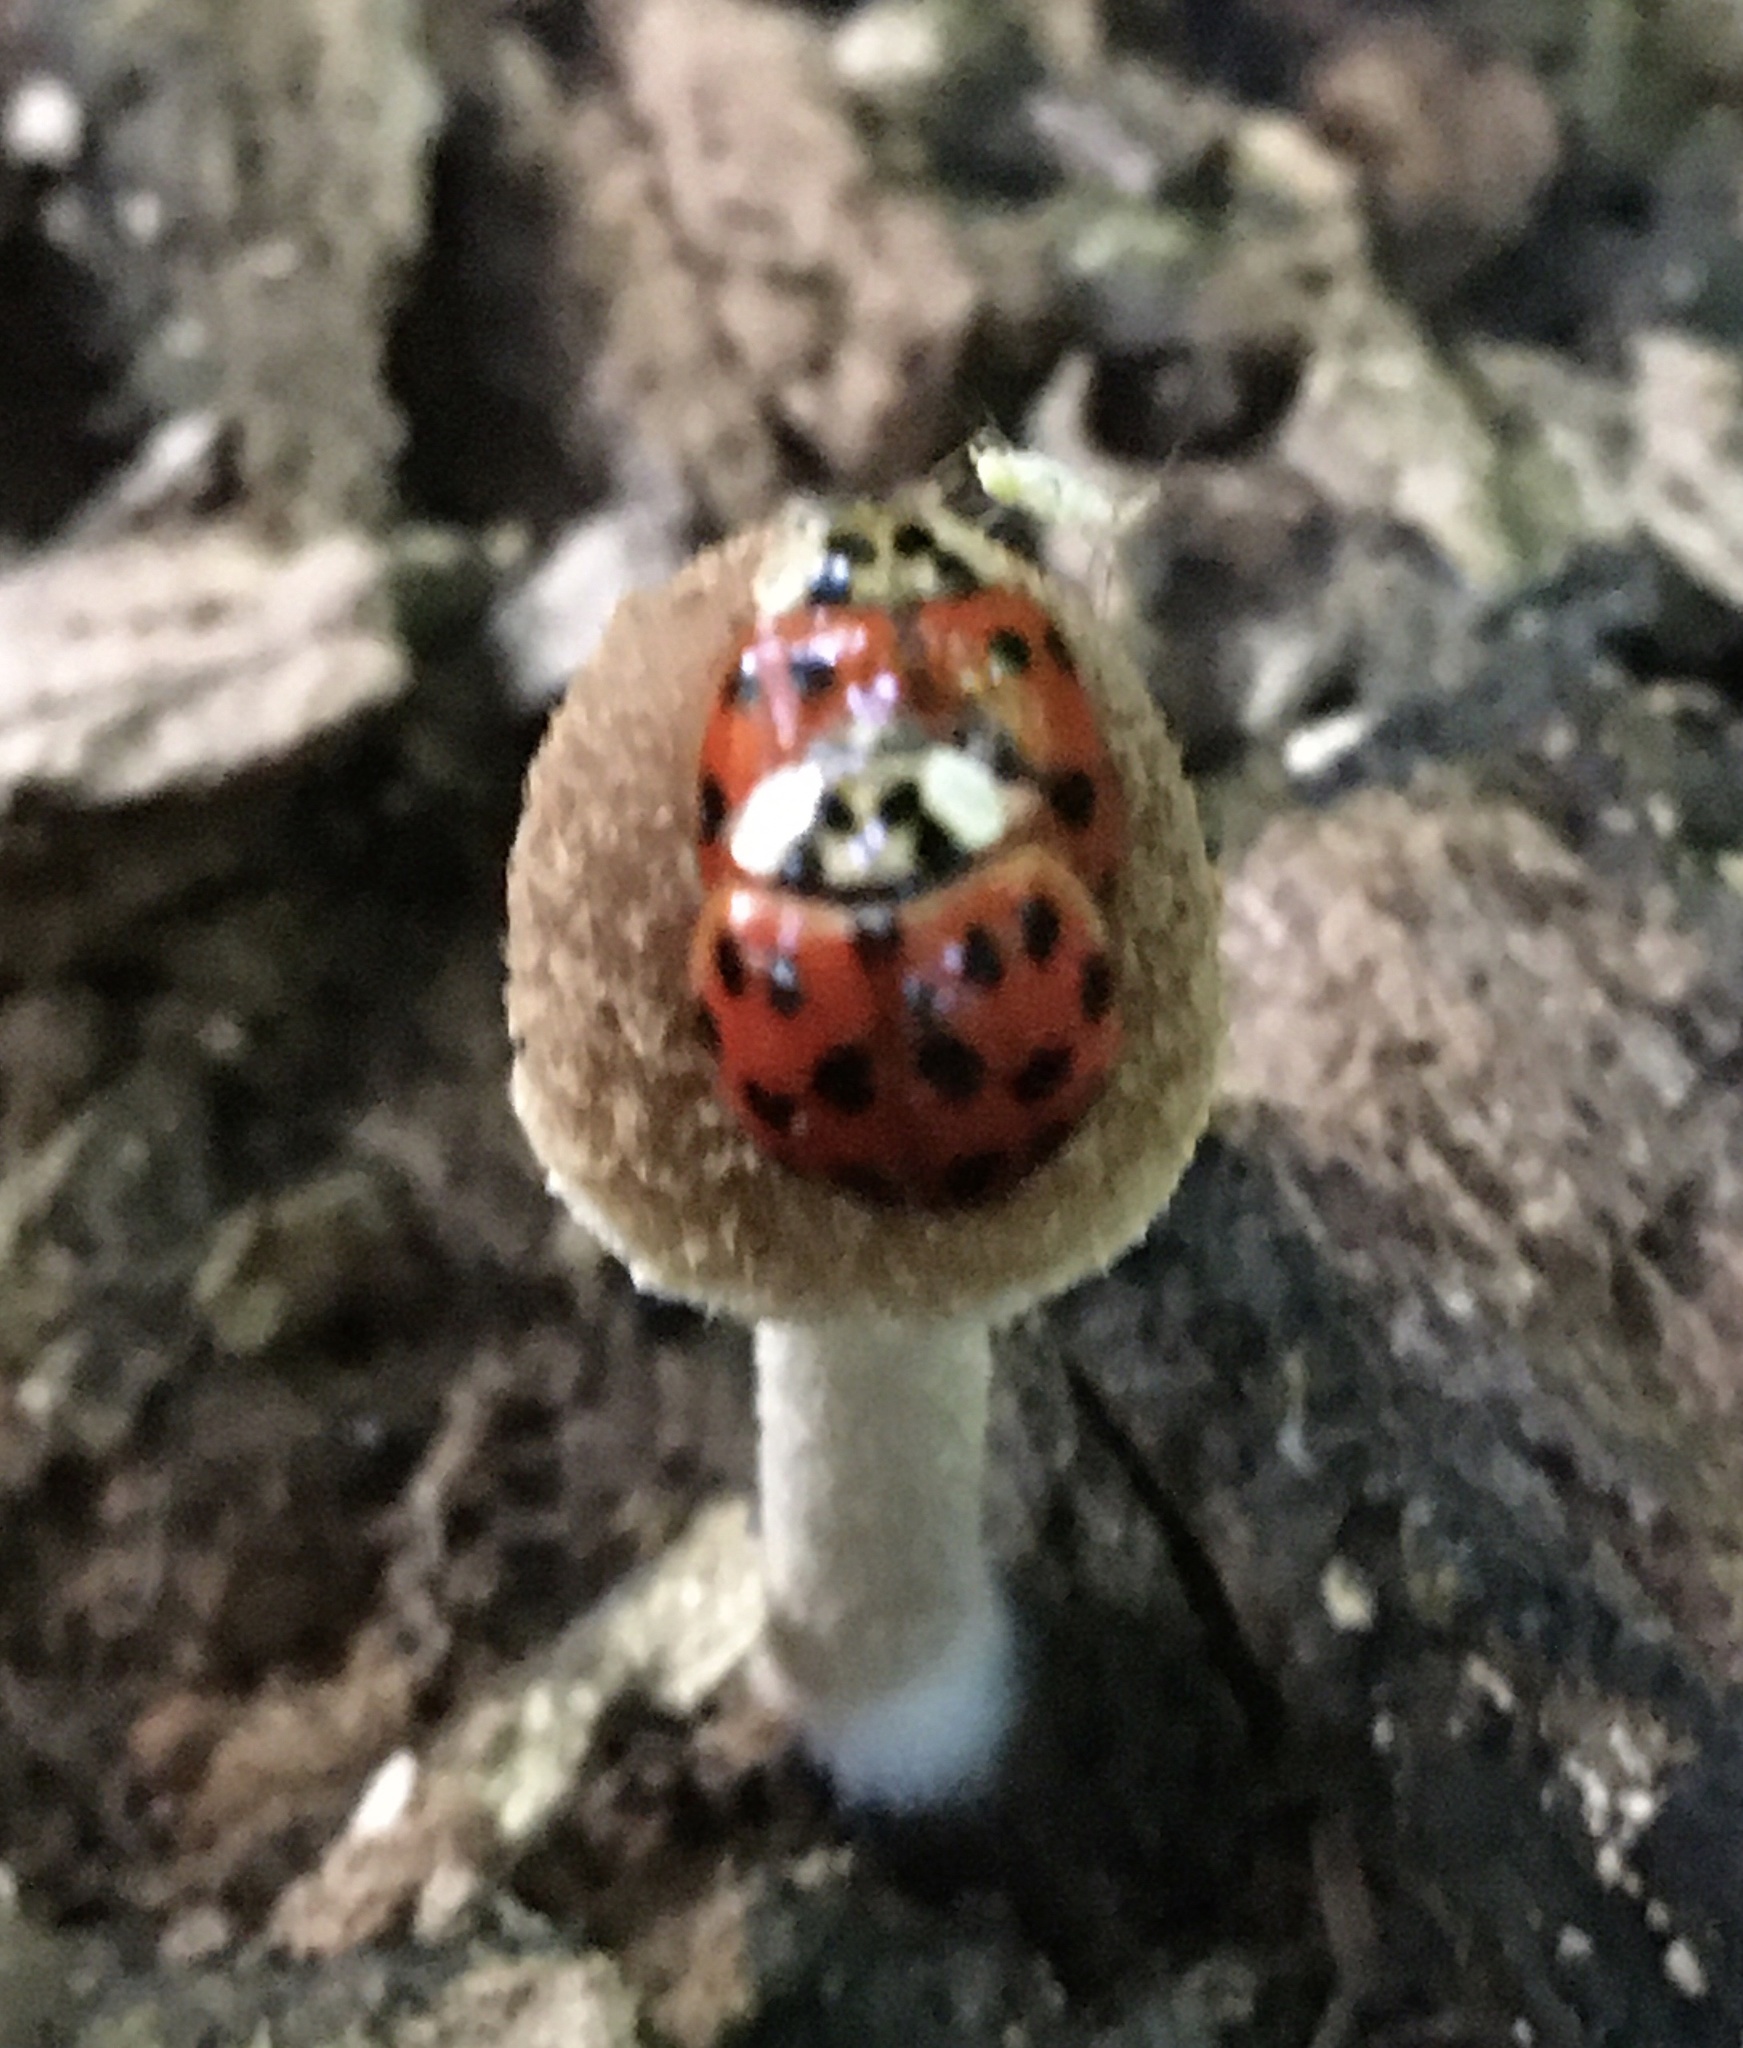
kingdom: Animalia
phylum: Arthropoda
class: Insecta
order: Coleoptera
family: Coccinellidae
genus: Harmonia
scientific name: Harmonia axyridis
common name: Harlequin ladybird
